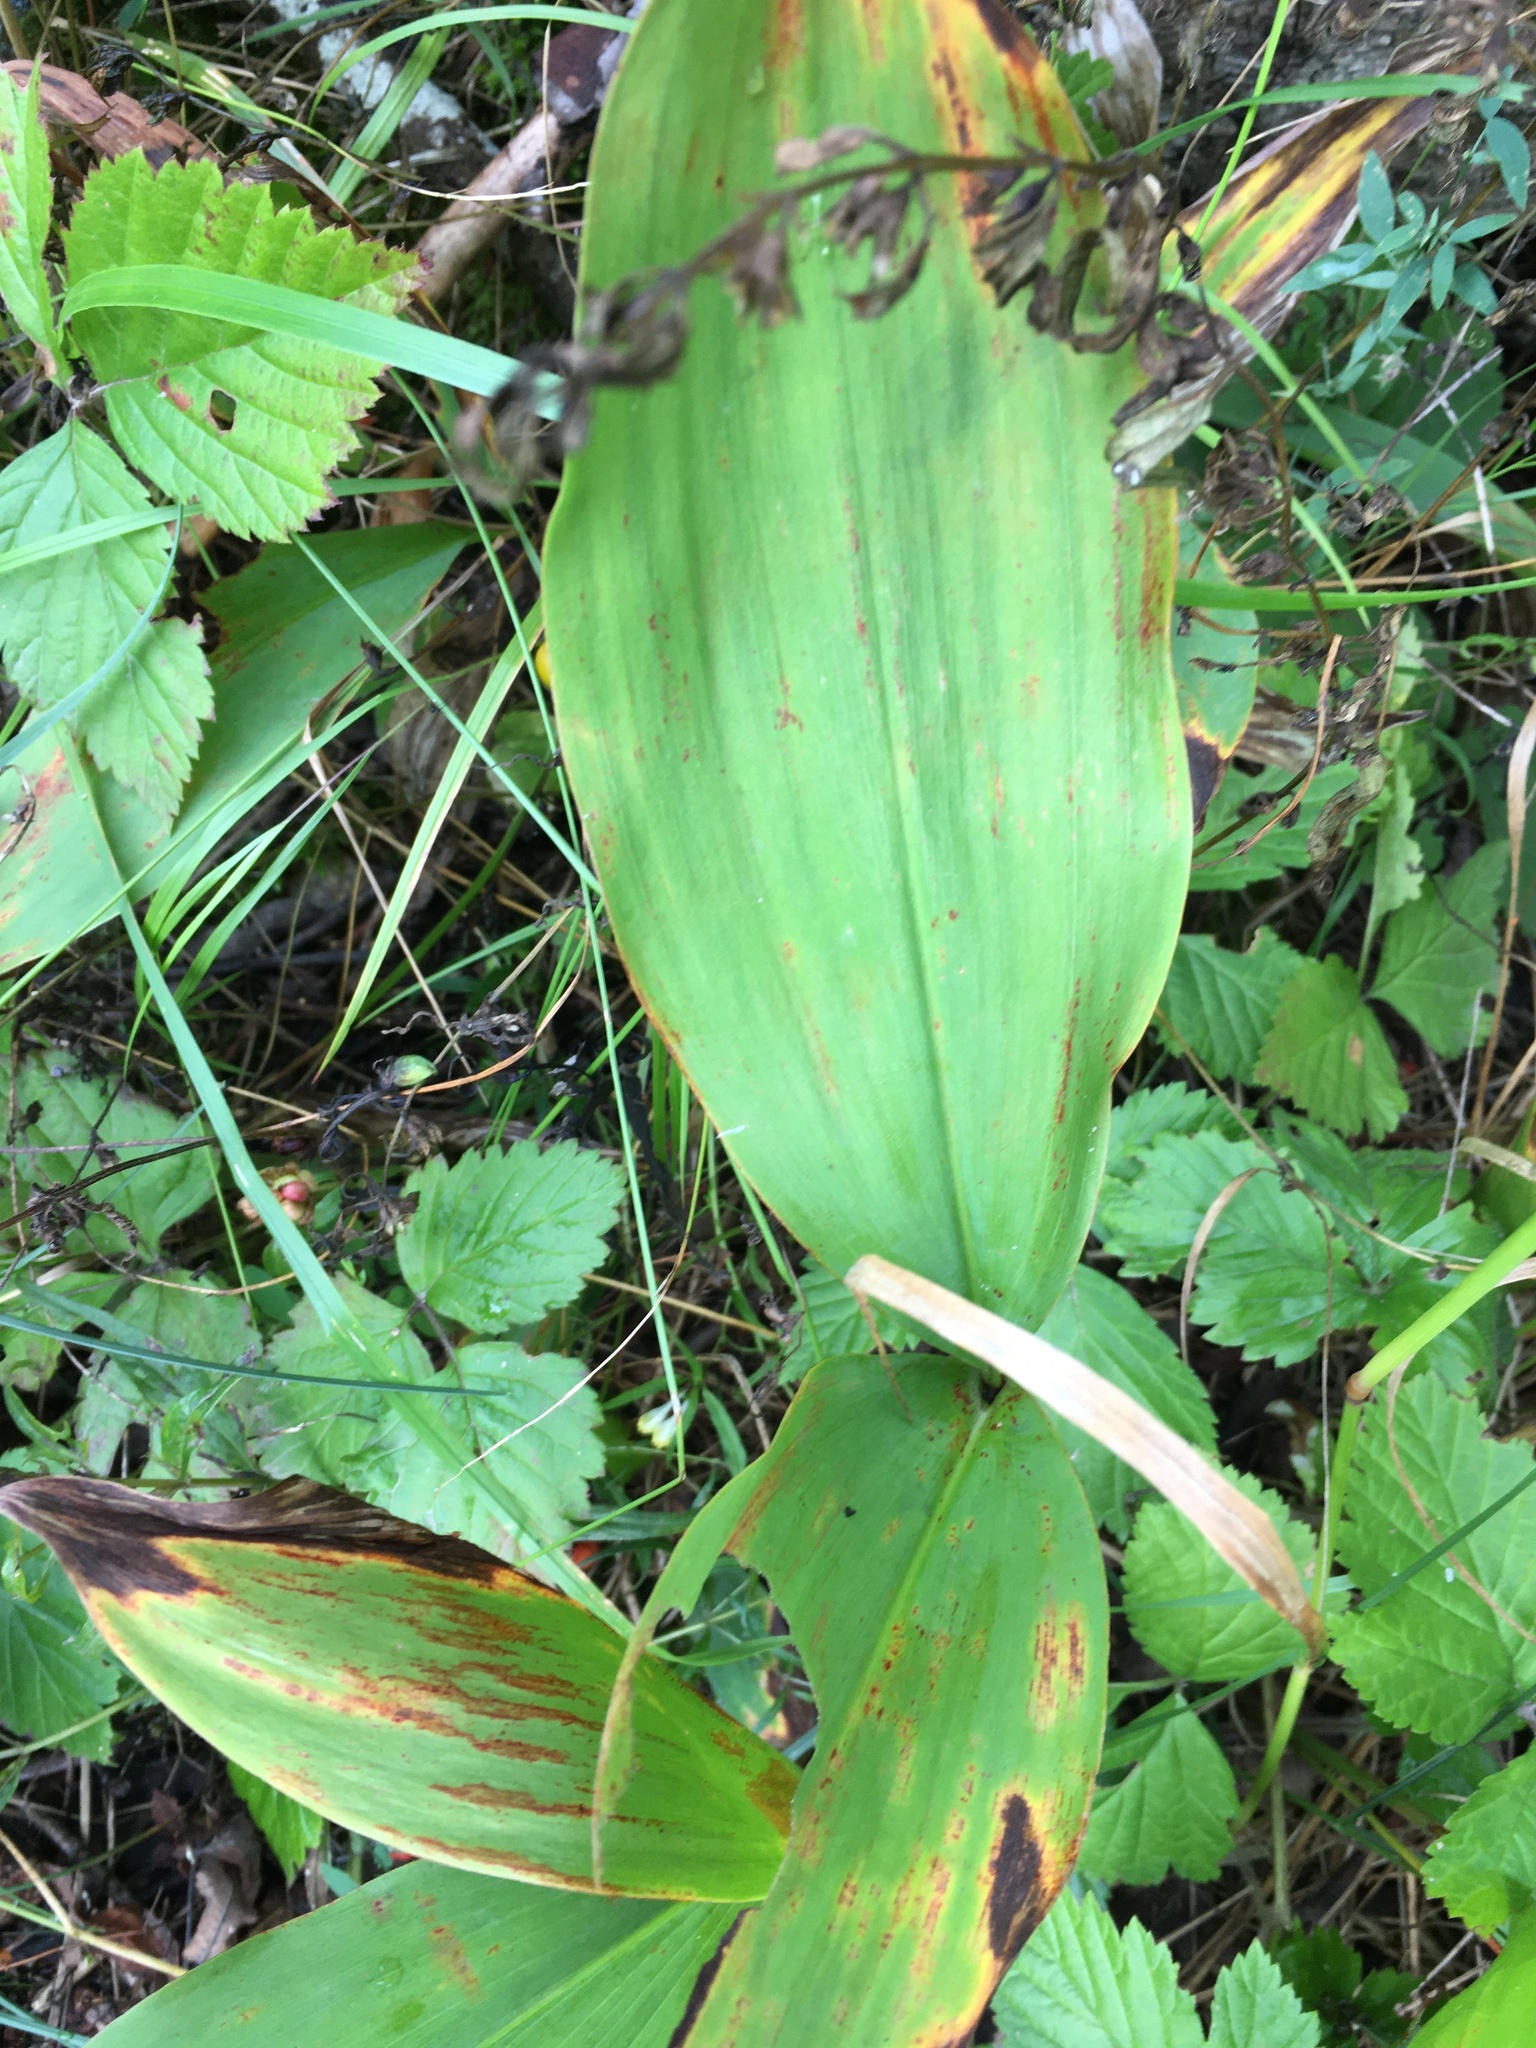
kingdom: Plantae
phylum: Tracheophyta
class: Liliopsida
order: Asparagales
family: Asparagaceae
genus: Convallaria
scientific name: Convallaria majalis
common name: Lily-of-the-valley
